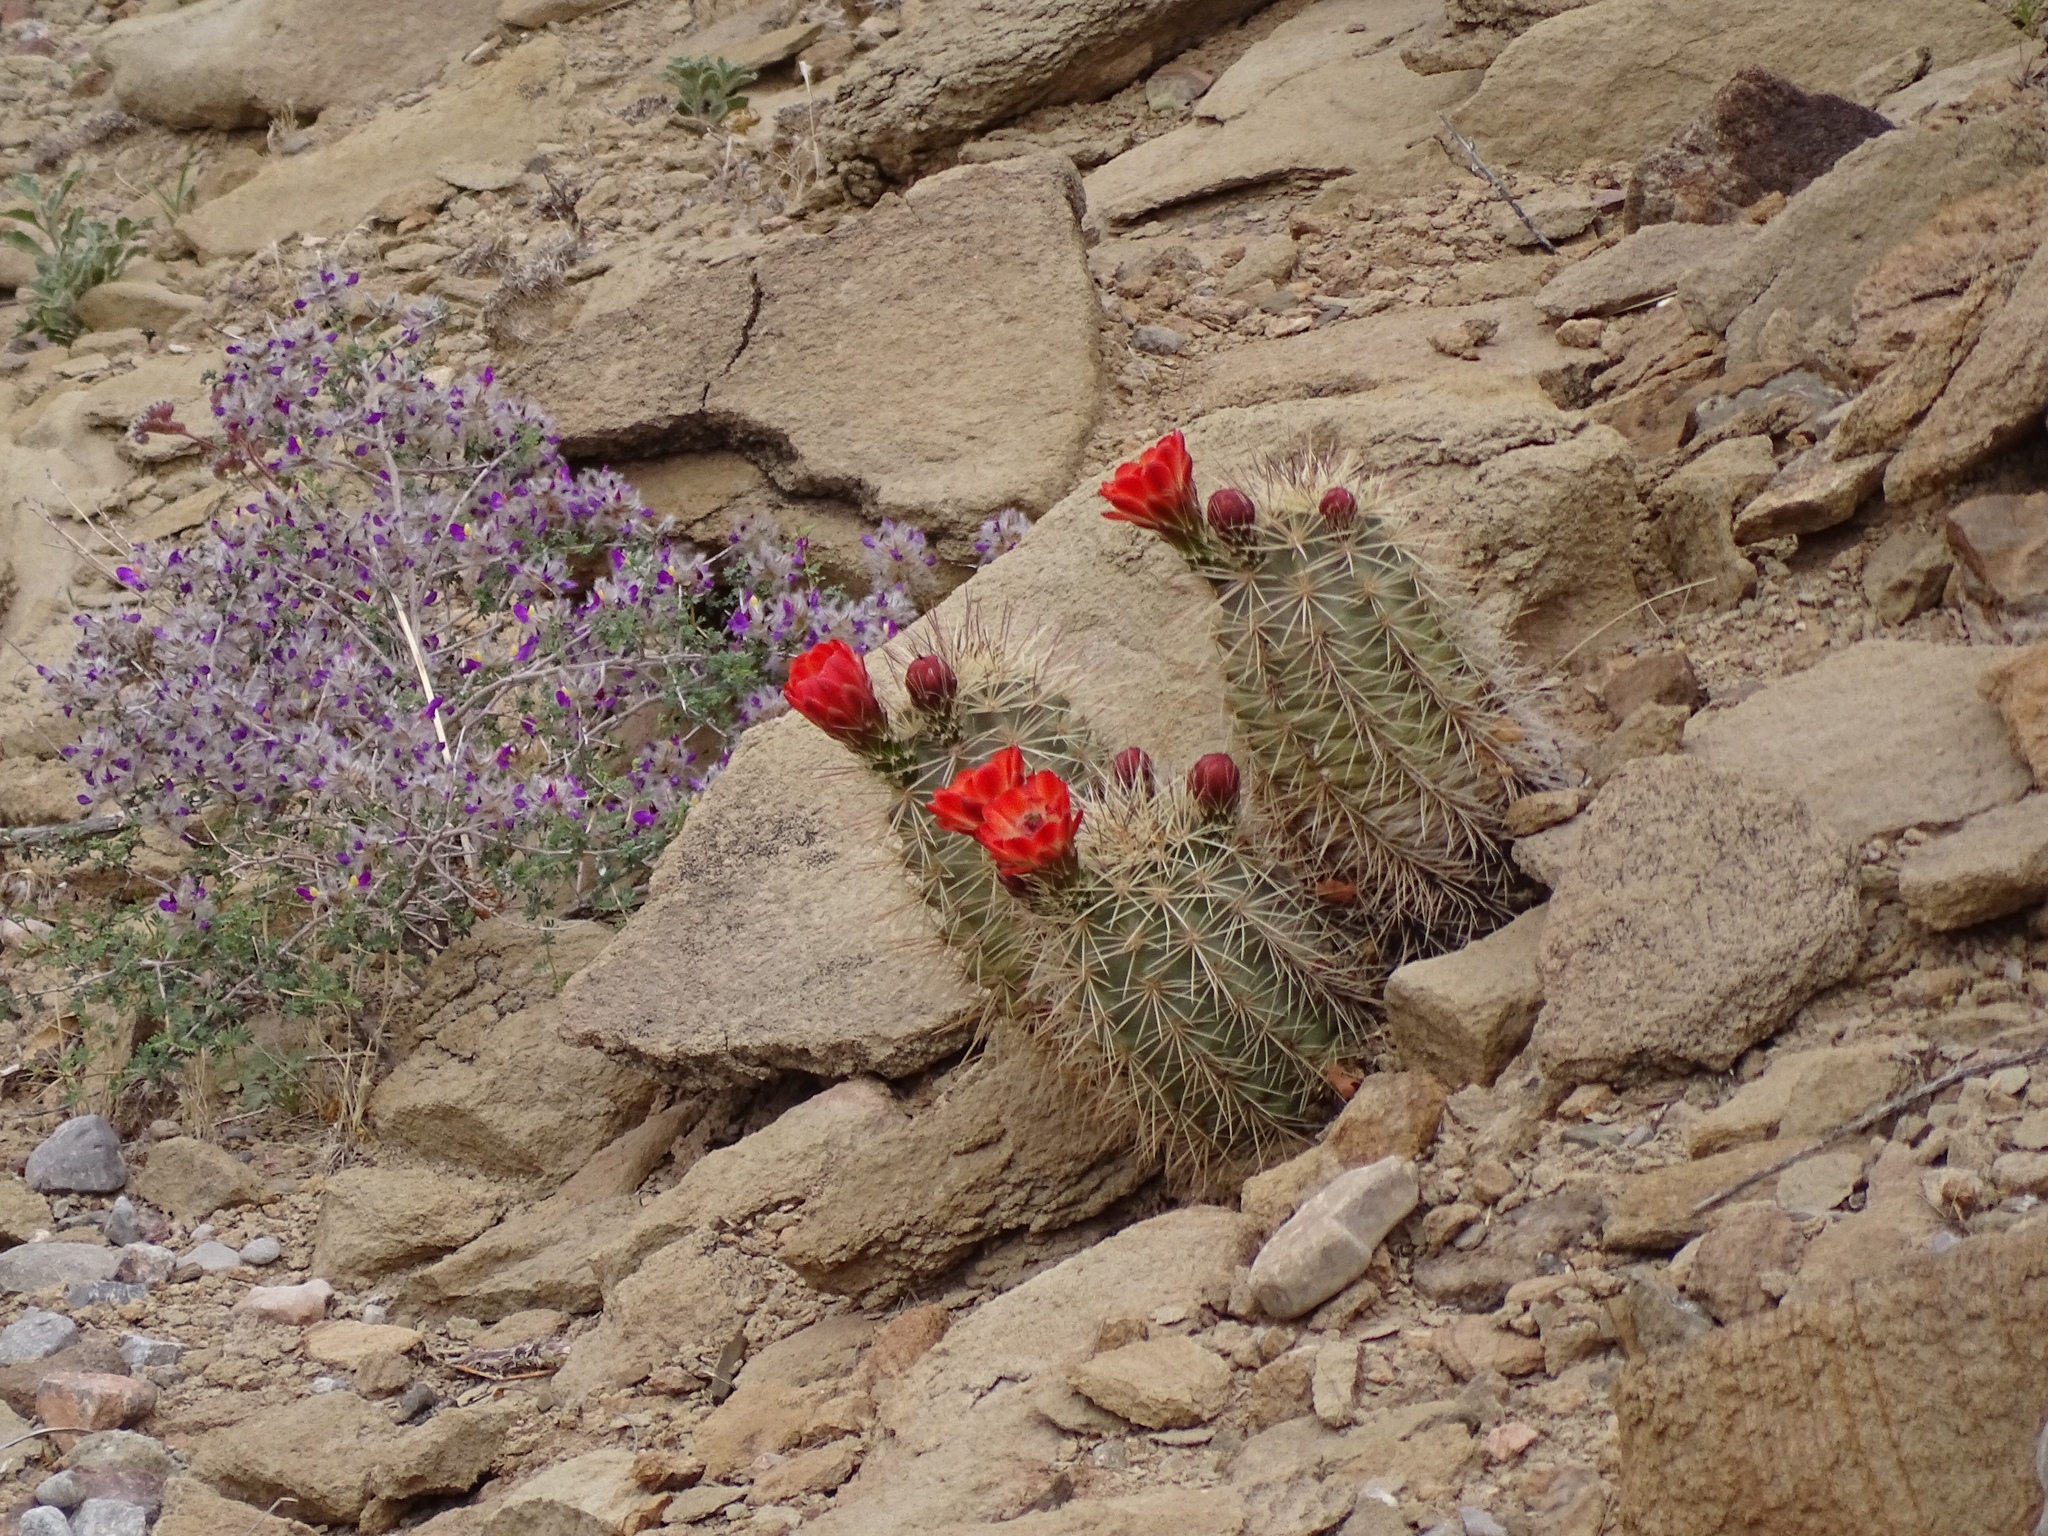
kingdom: Plantae
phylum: Tracheophyta
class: Magnoliopsida
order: Caryophyllales
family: Cactaceae
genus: Echinocereus
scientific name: Echinocereus coccineus
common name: Scarlet hedgehog cactus
